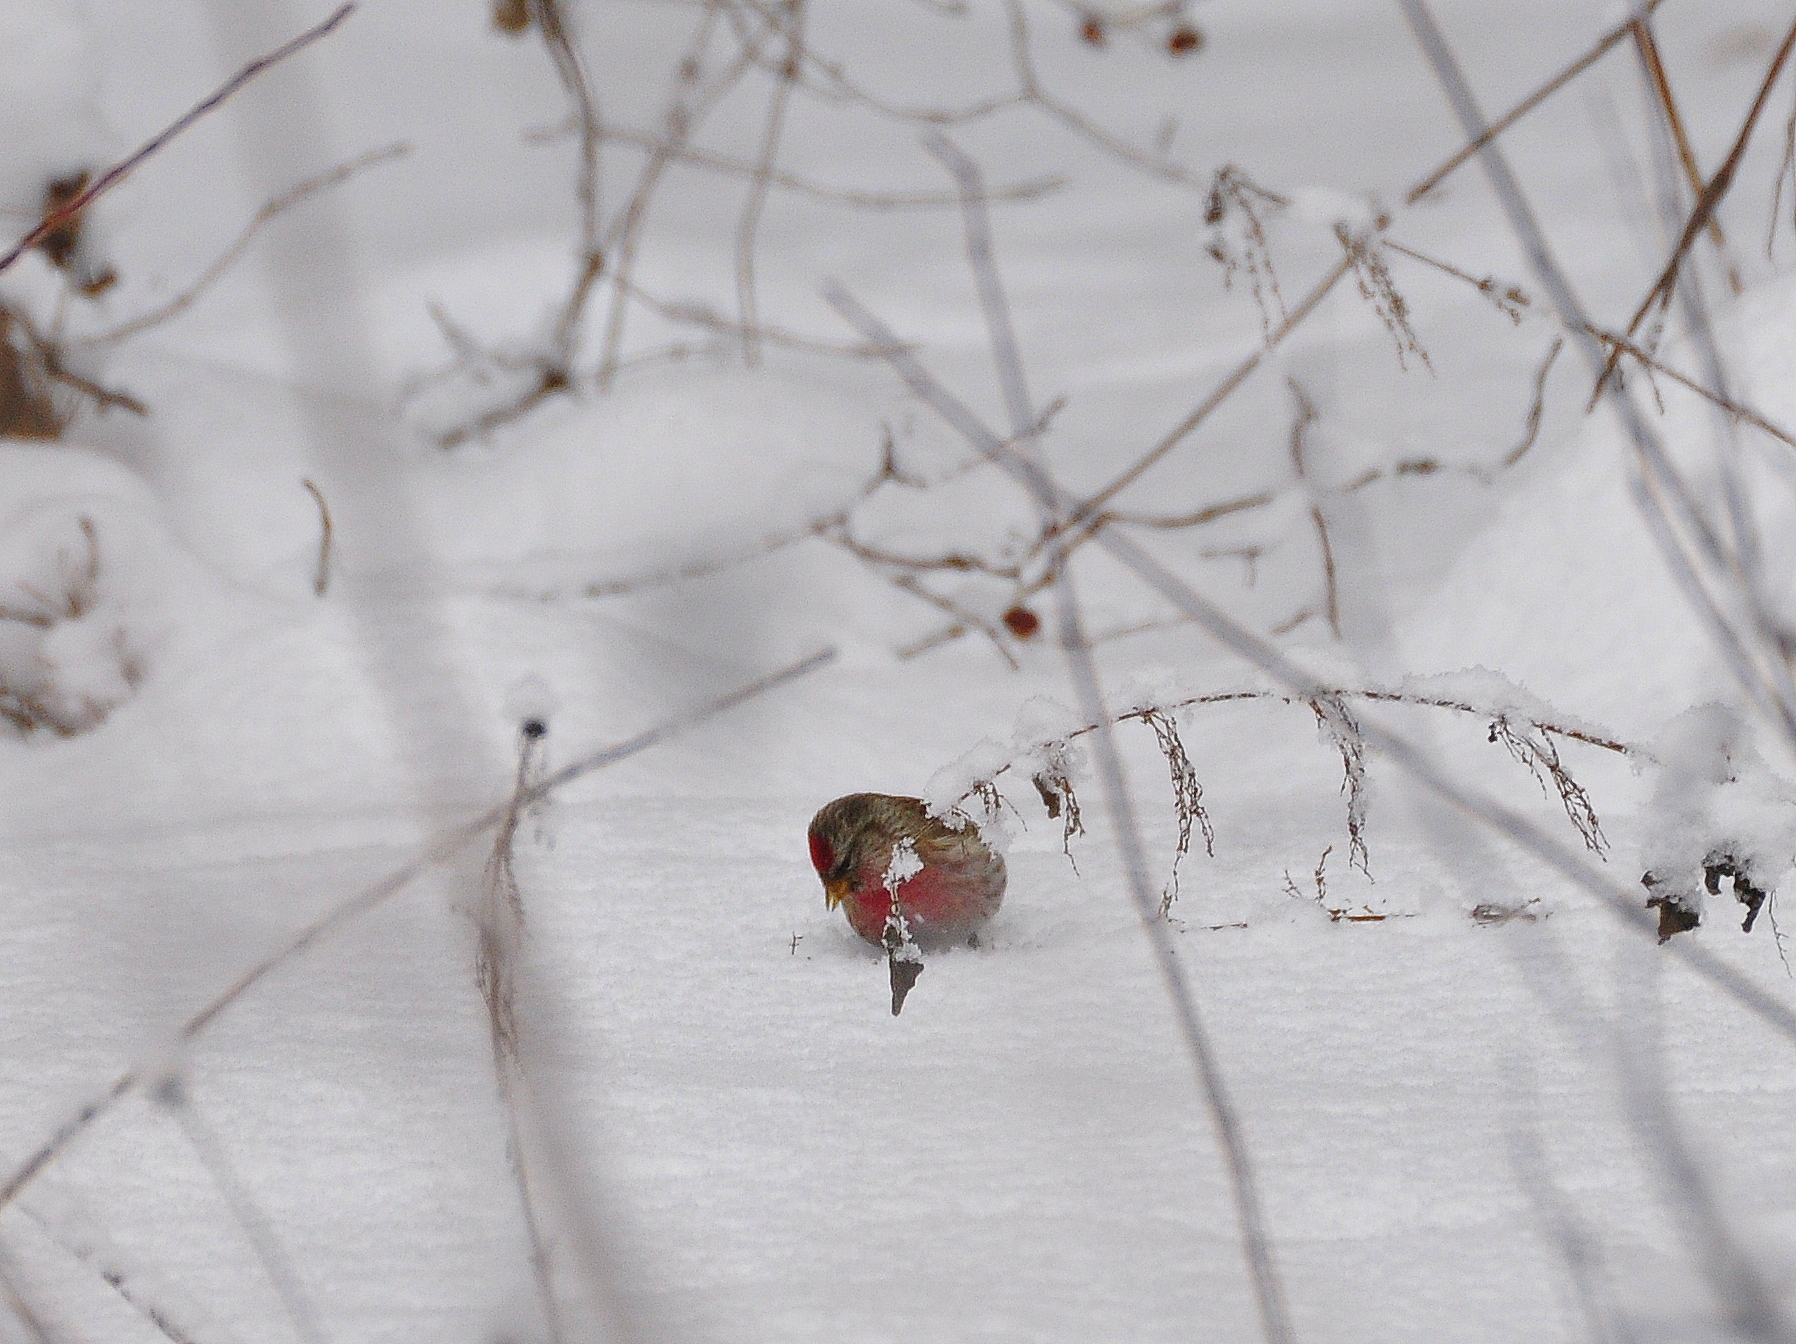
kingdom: Animalia
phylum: Chordata
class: Aves
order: Passeriformes
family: Fringillidae
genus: Acanthis
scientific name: Acanthis flammea
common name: Common redpoll
